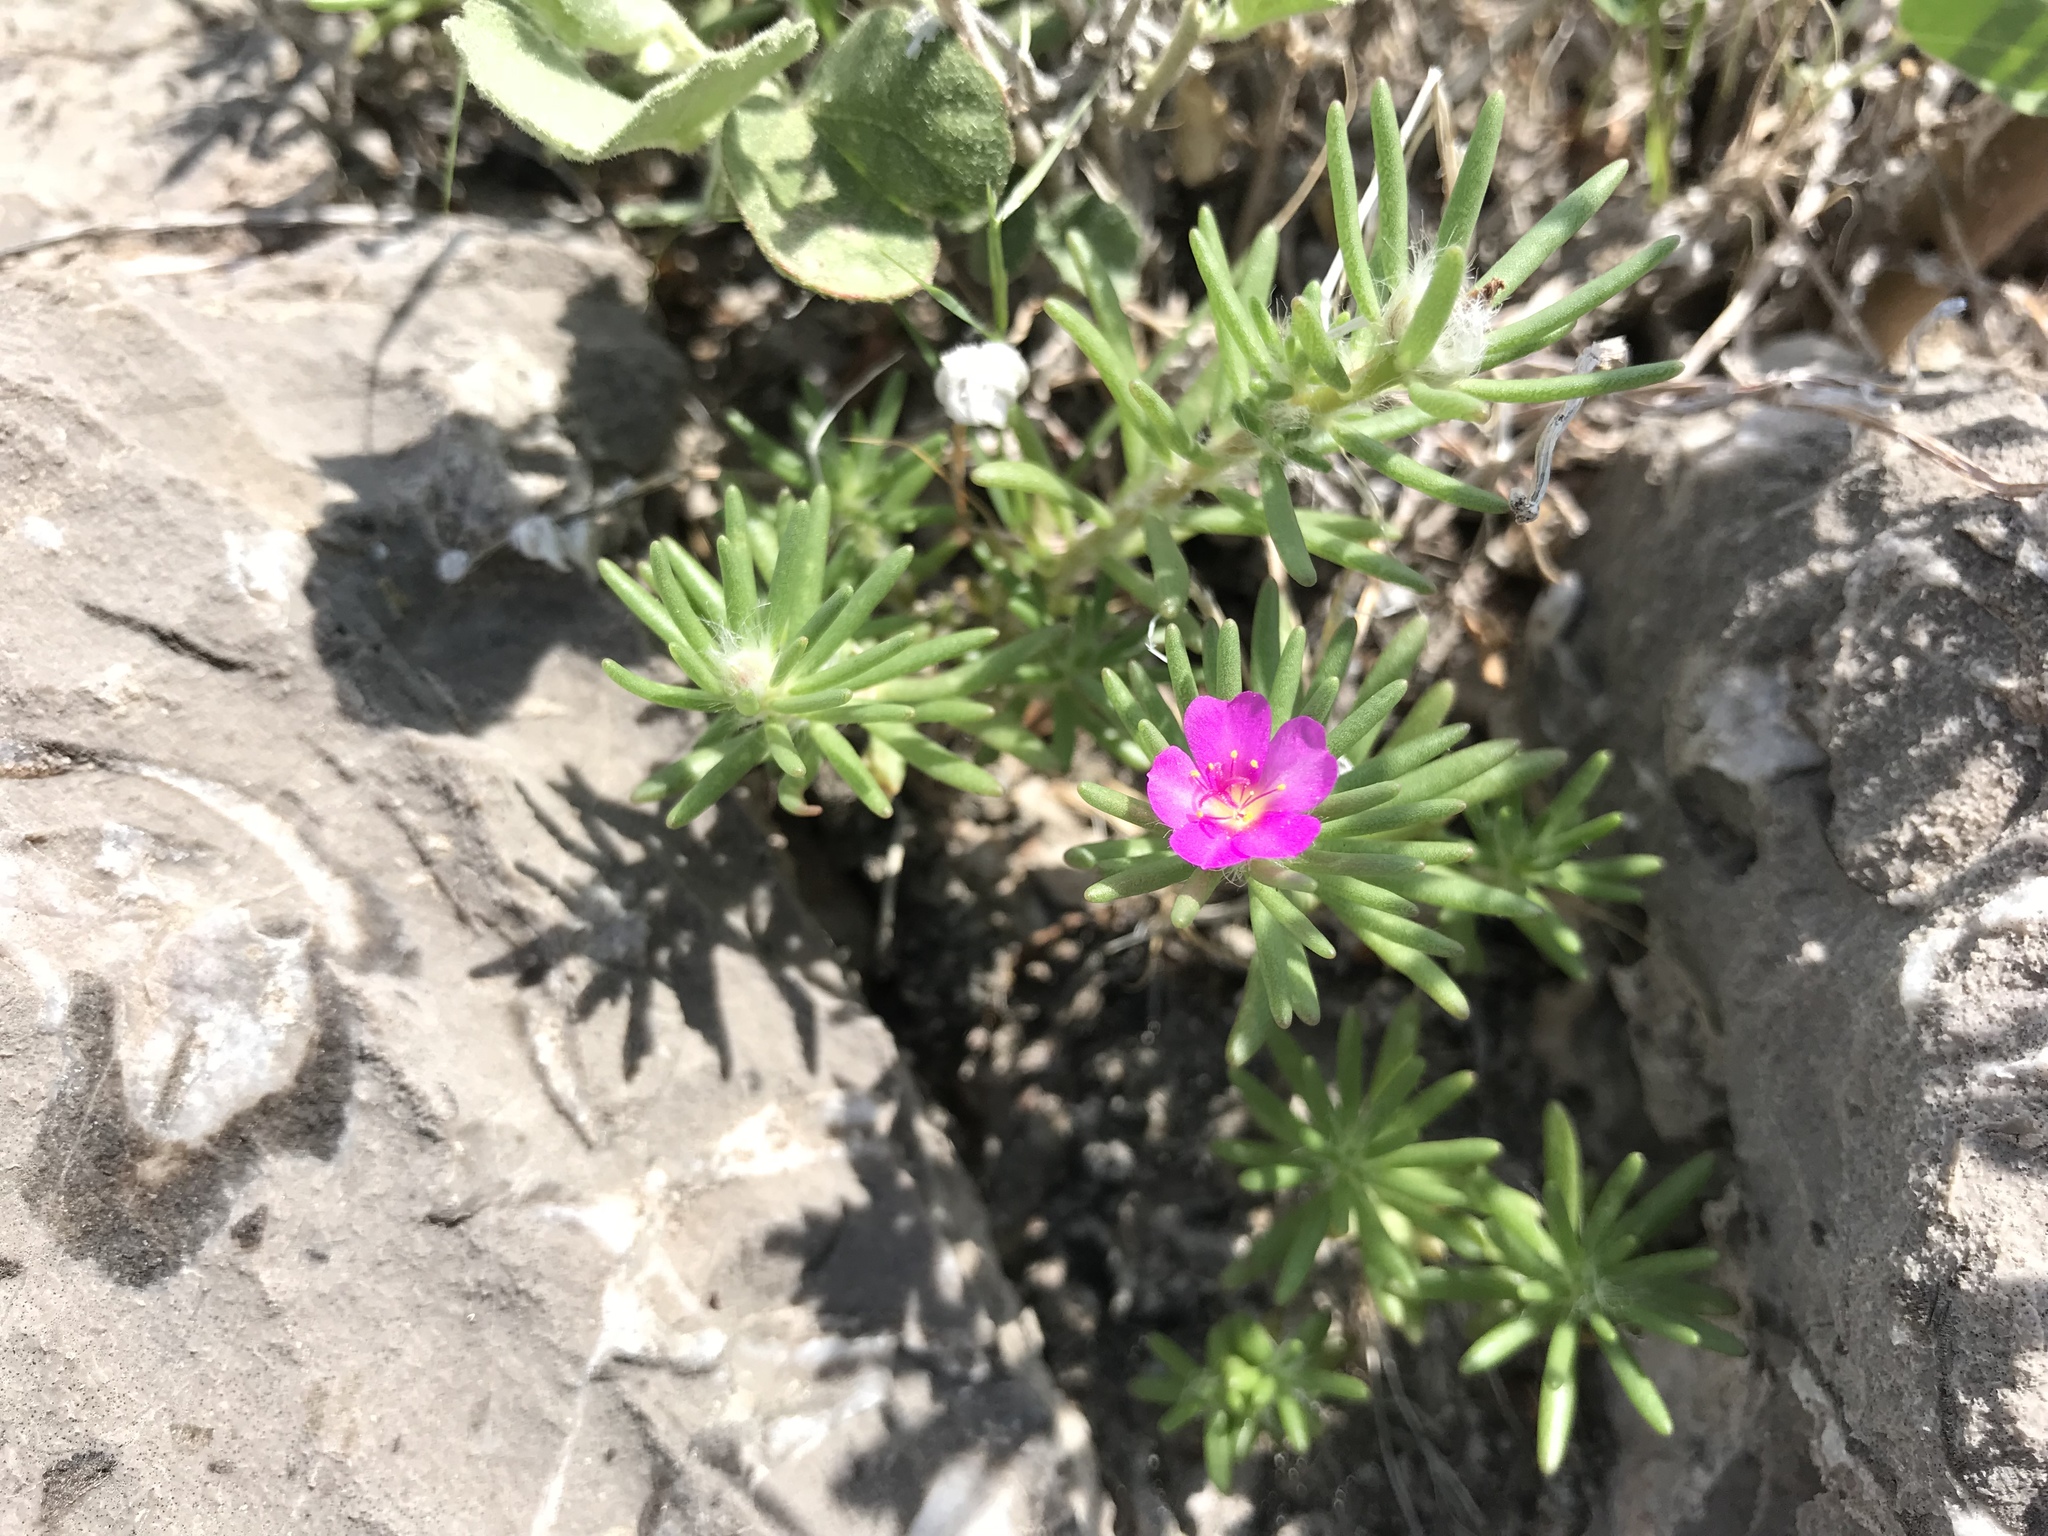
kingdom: Plantae
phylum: Tracheophyta
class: Magnoliopsida
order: Caryophyllales
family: Portulacaceae
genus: Portulaca
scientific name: Portulaca pilosa
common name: Kiss me quick
